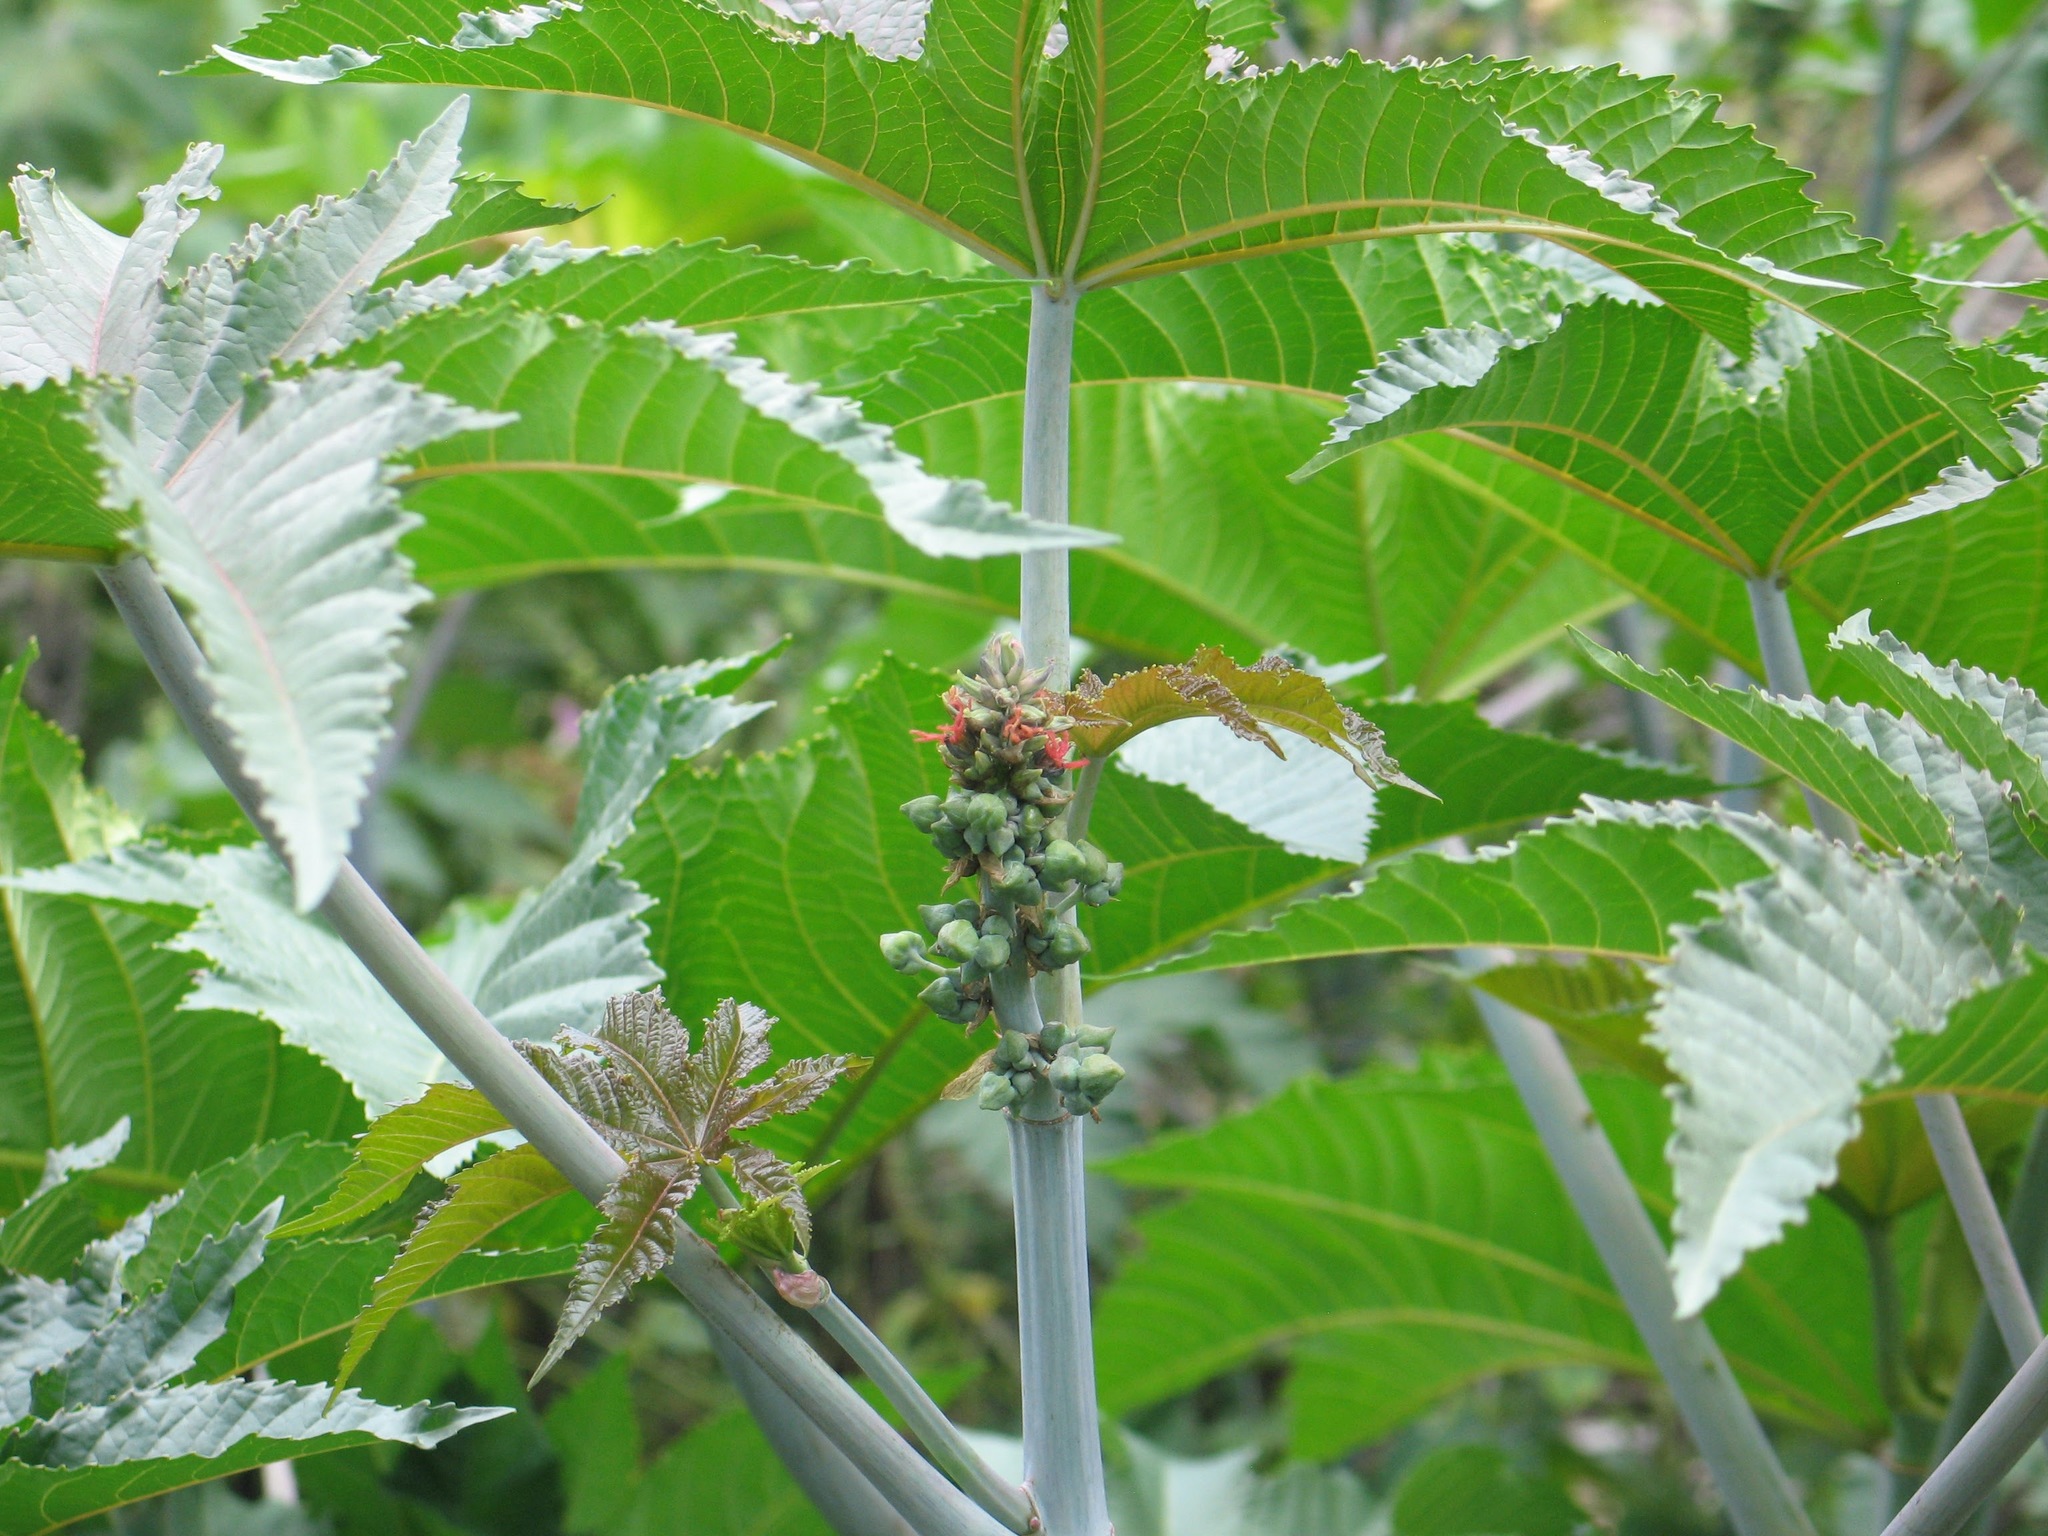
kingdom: Plantae
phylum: Tracheophyta
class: Magnoliopsida
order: Malpighiales
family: Euphorbiaceae
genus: Ricinus
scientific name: Ricinus communis
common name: Castor-oil-plant
